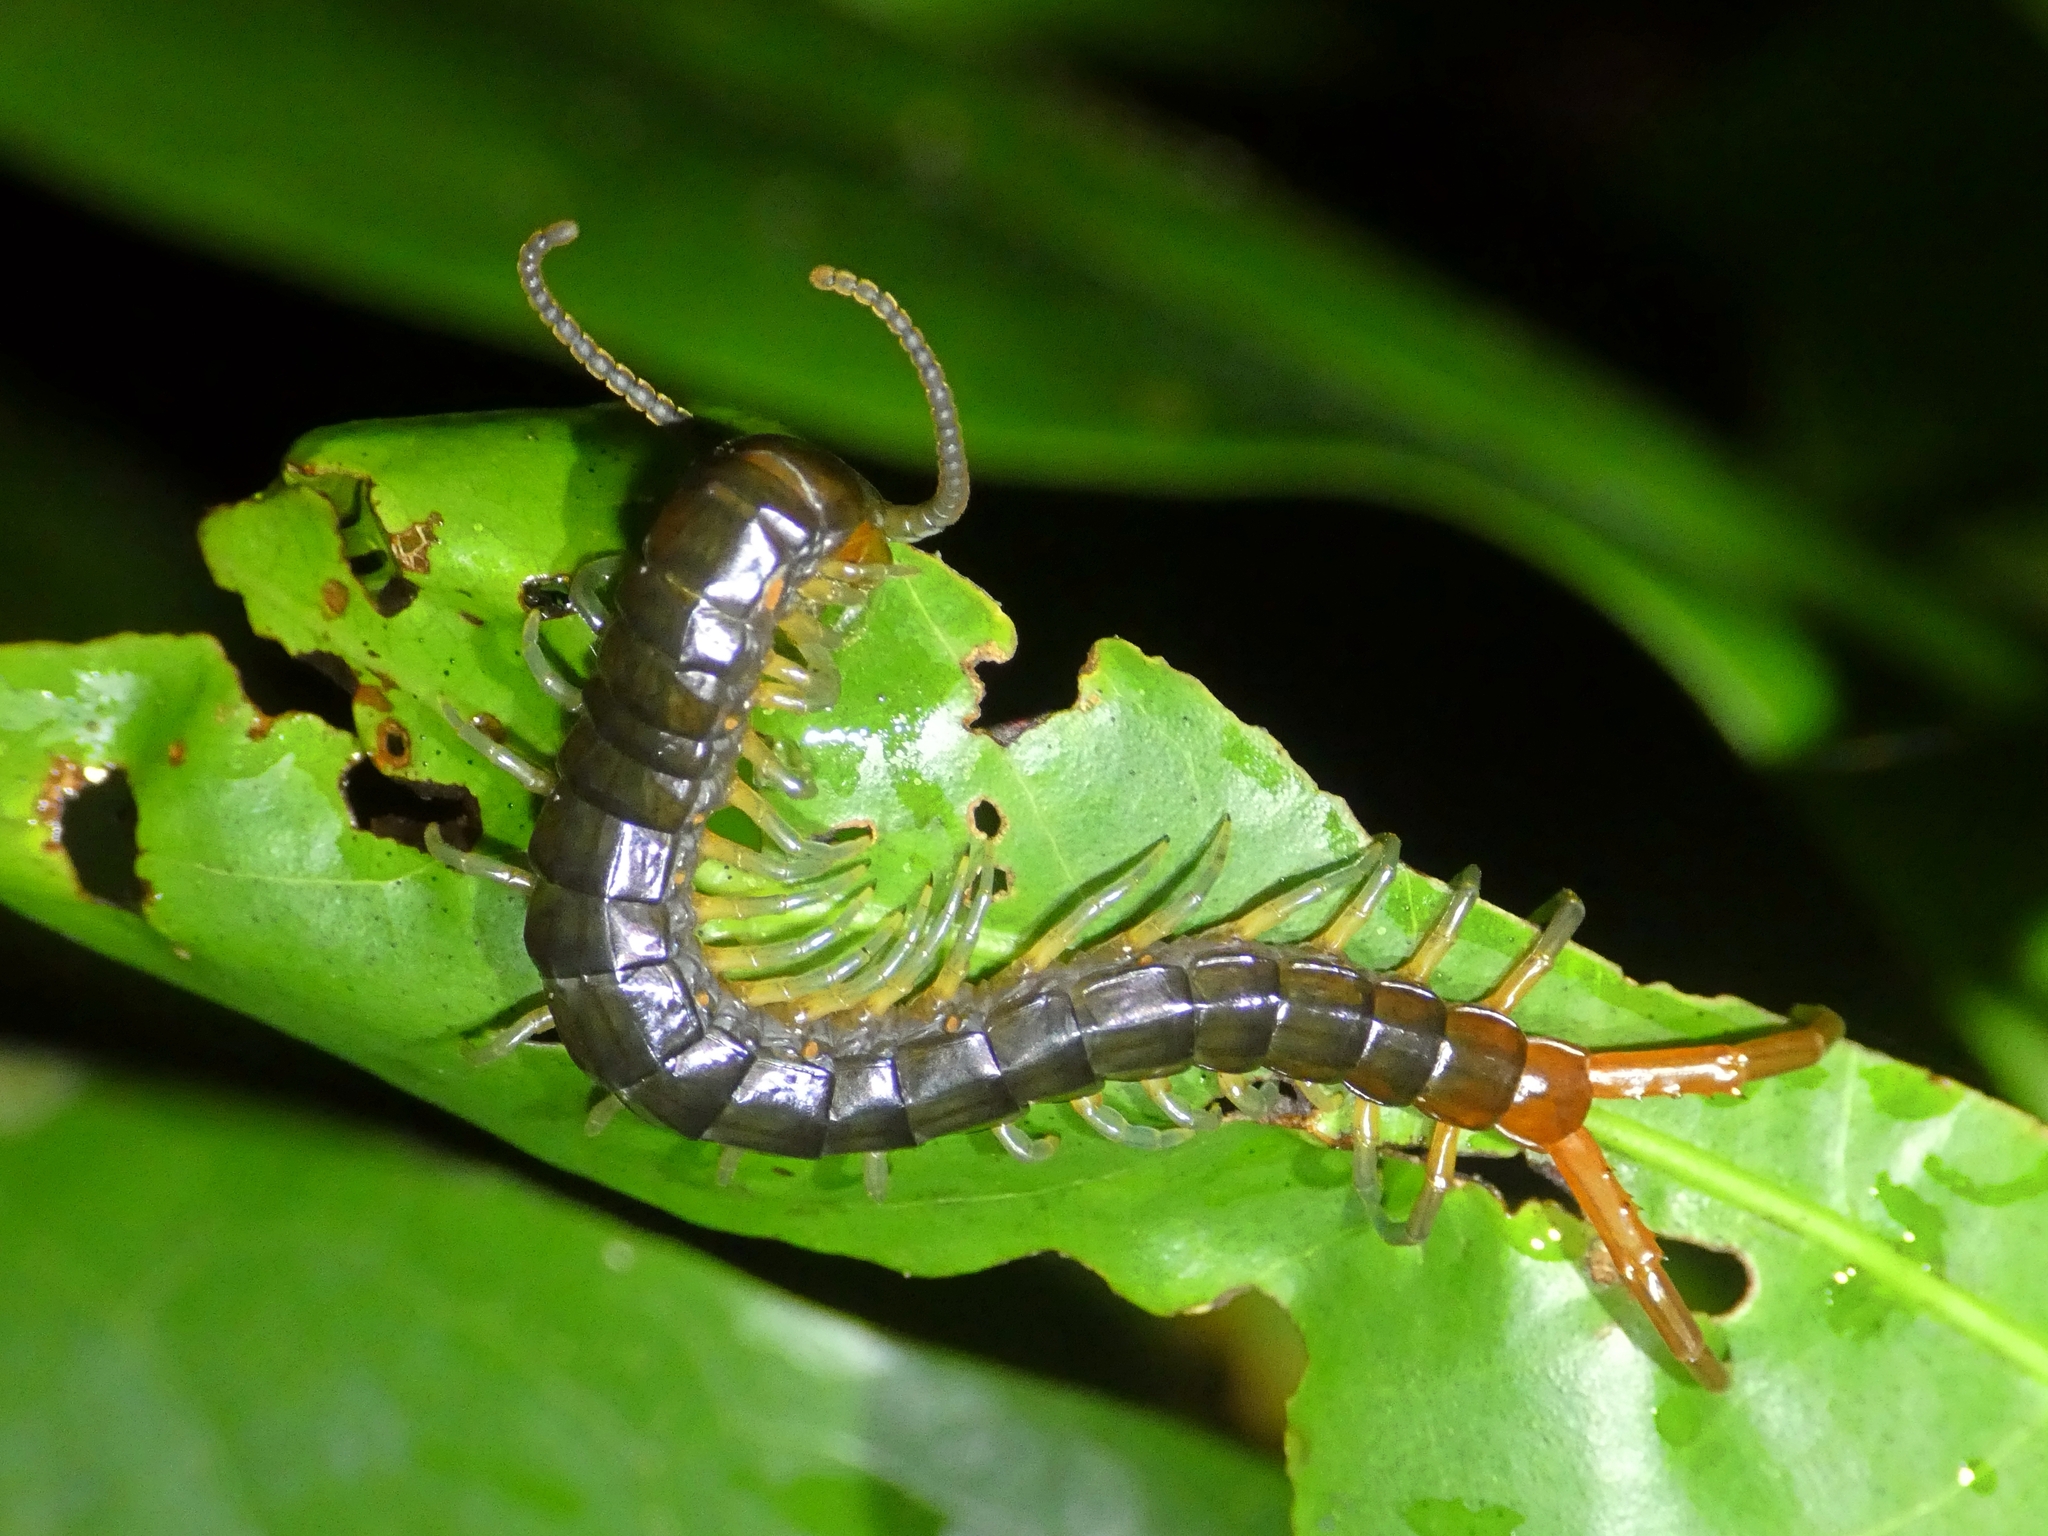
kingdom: Animalia
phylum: Arthropoda
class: Chilopoda
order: Scolopendromorpha
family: Scolopendridae
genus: Ethmostigmus
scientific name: Ethmostigmus rubripes
